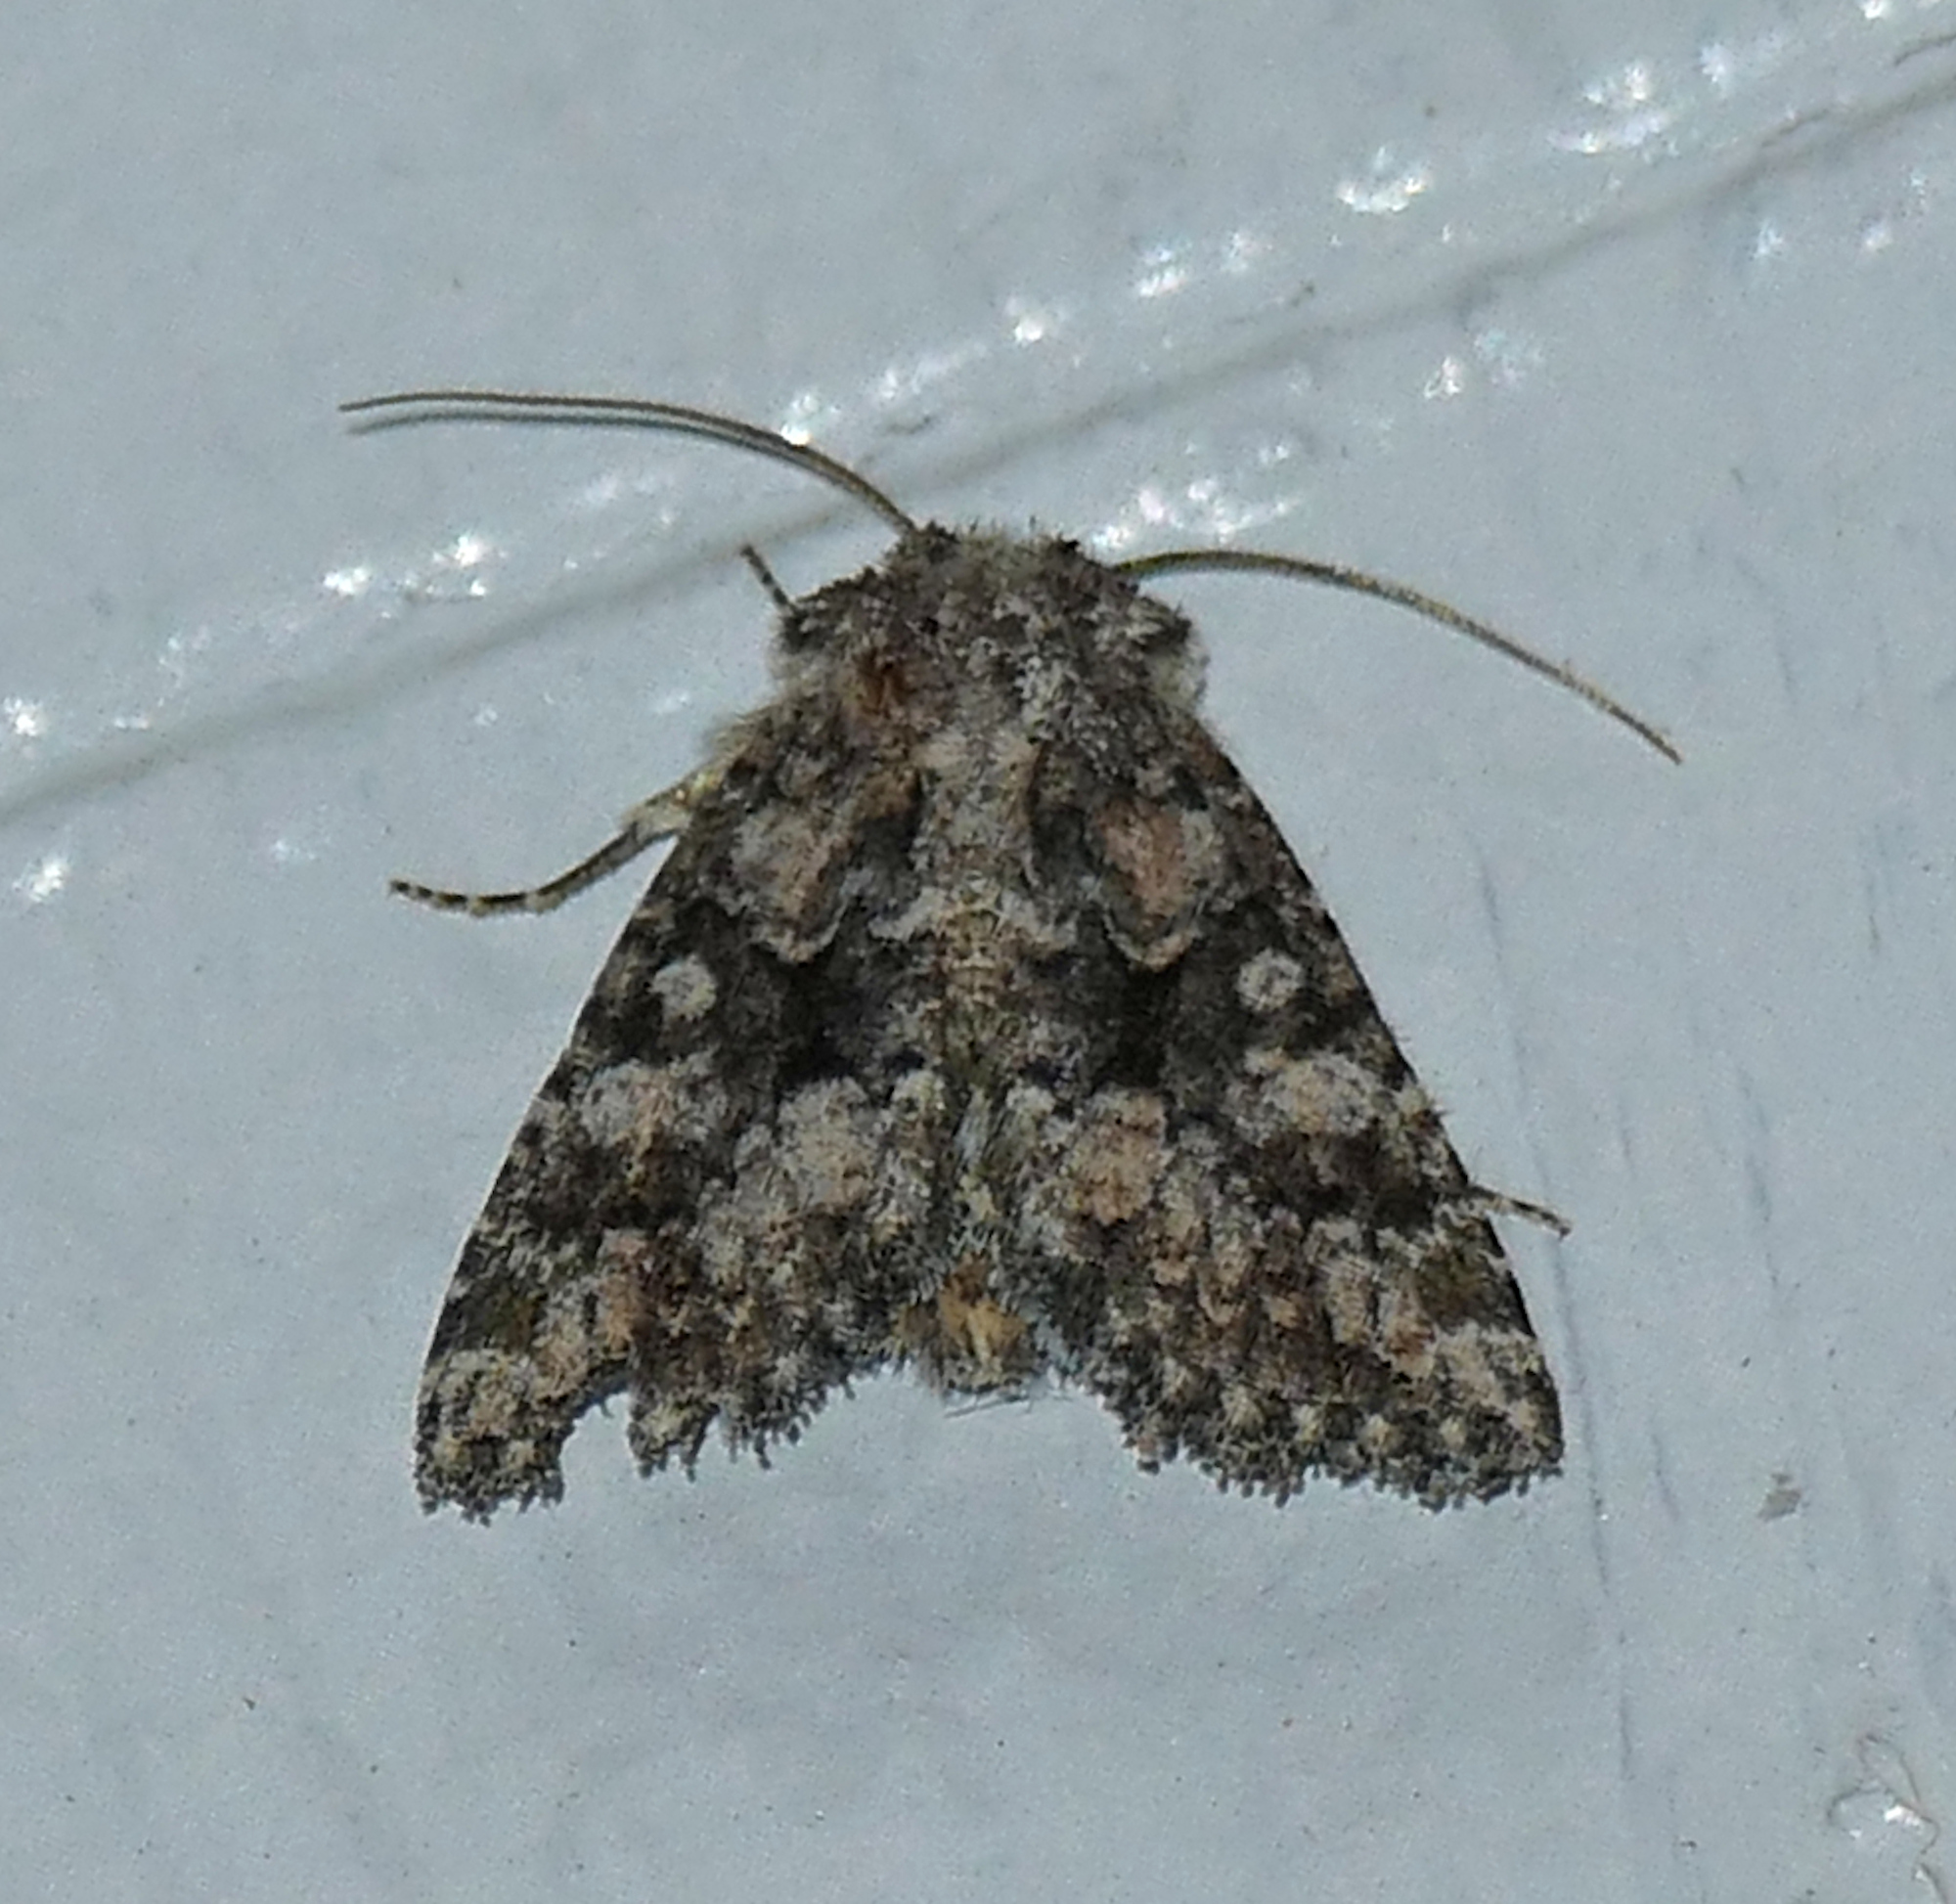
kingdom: Animalia
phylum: Arthropoda
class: Insecta
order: Lepidoptera
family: Noctuidae
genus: Pseudanarta
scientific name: Pseudanarta pulverulenta
